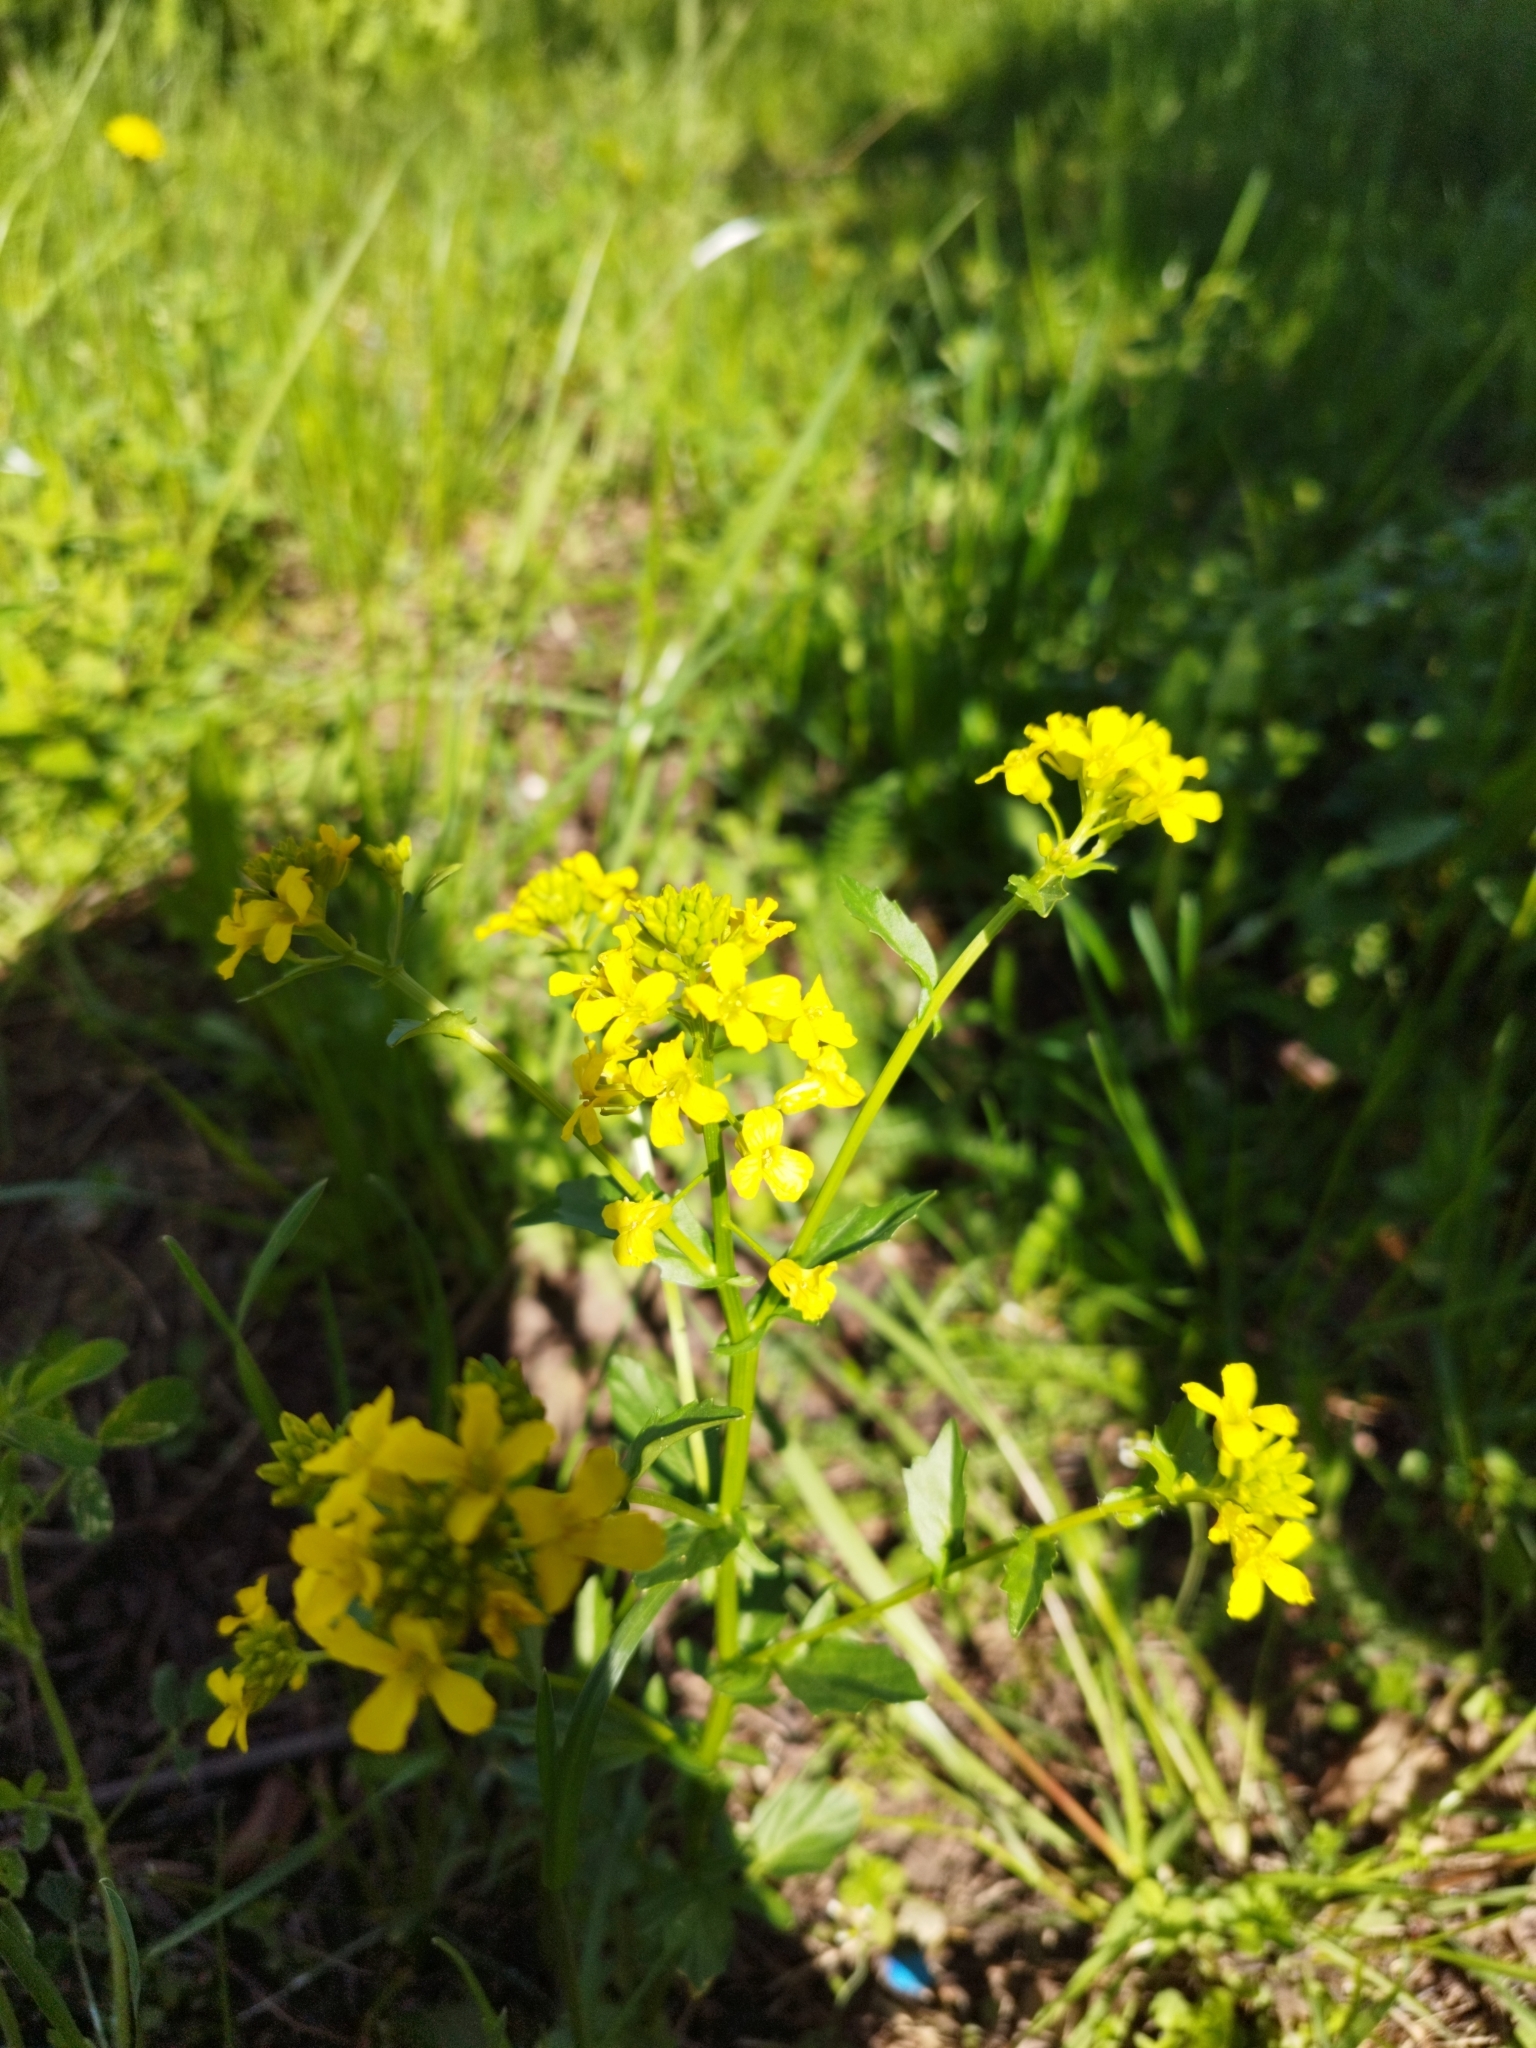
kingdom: Plantae
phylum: Tracheophyta
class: Magnoliopsida
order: Brassicales
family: Brassicaceae
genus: Barbarea
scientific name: Barbarea vulgaris
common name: Cressy-greens
